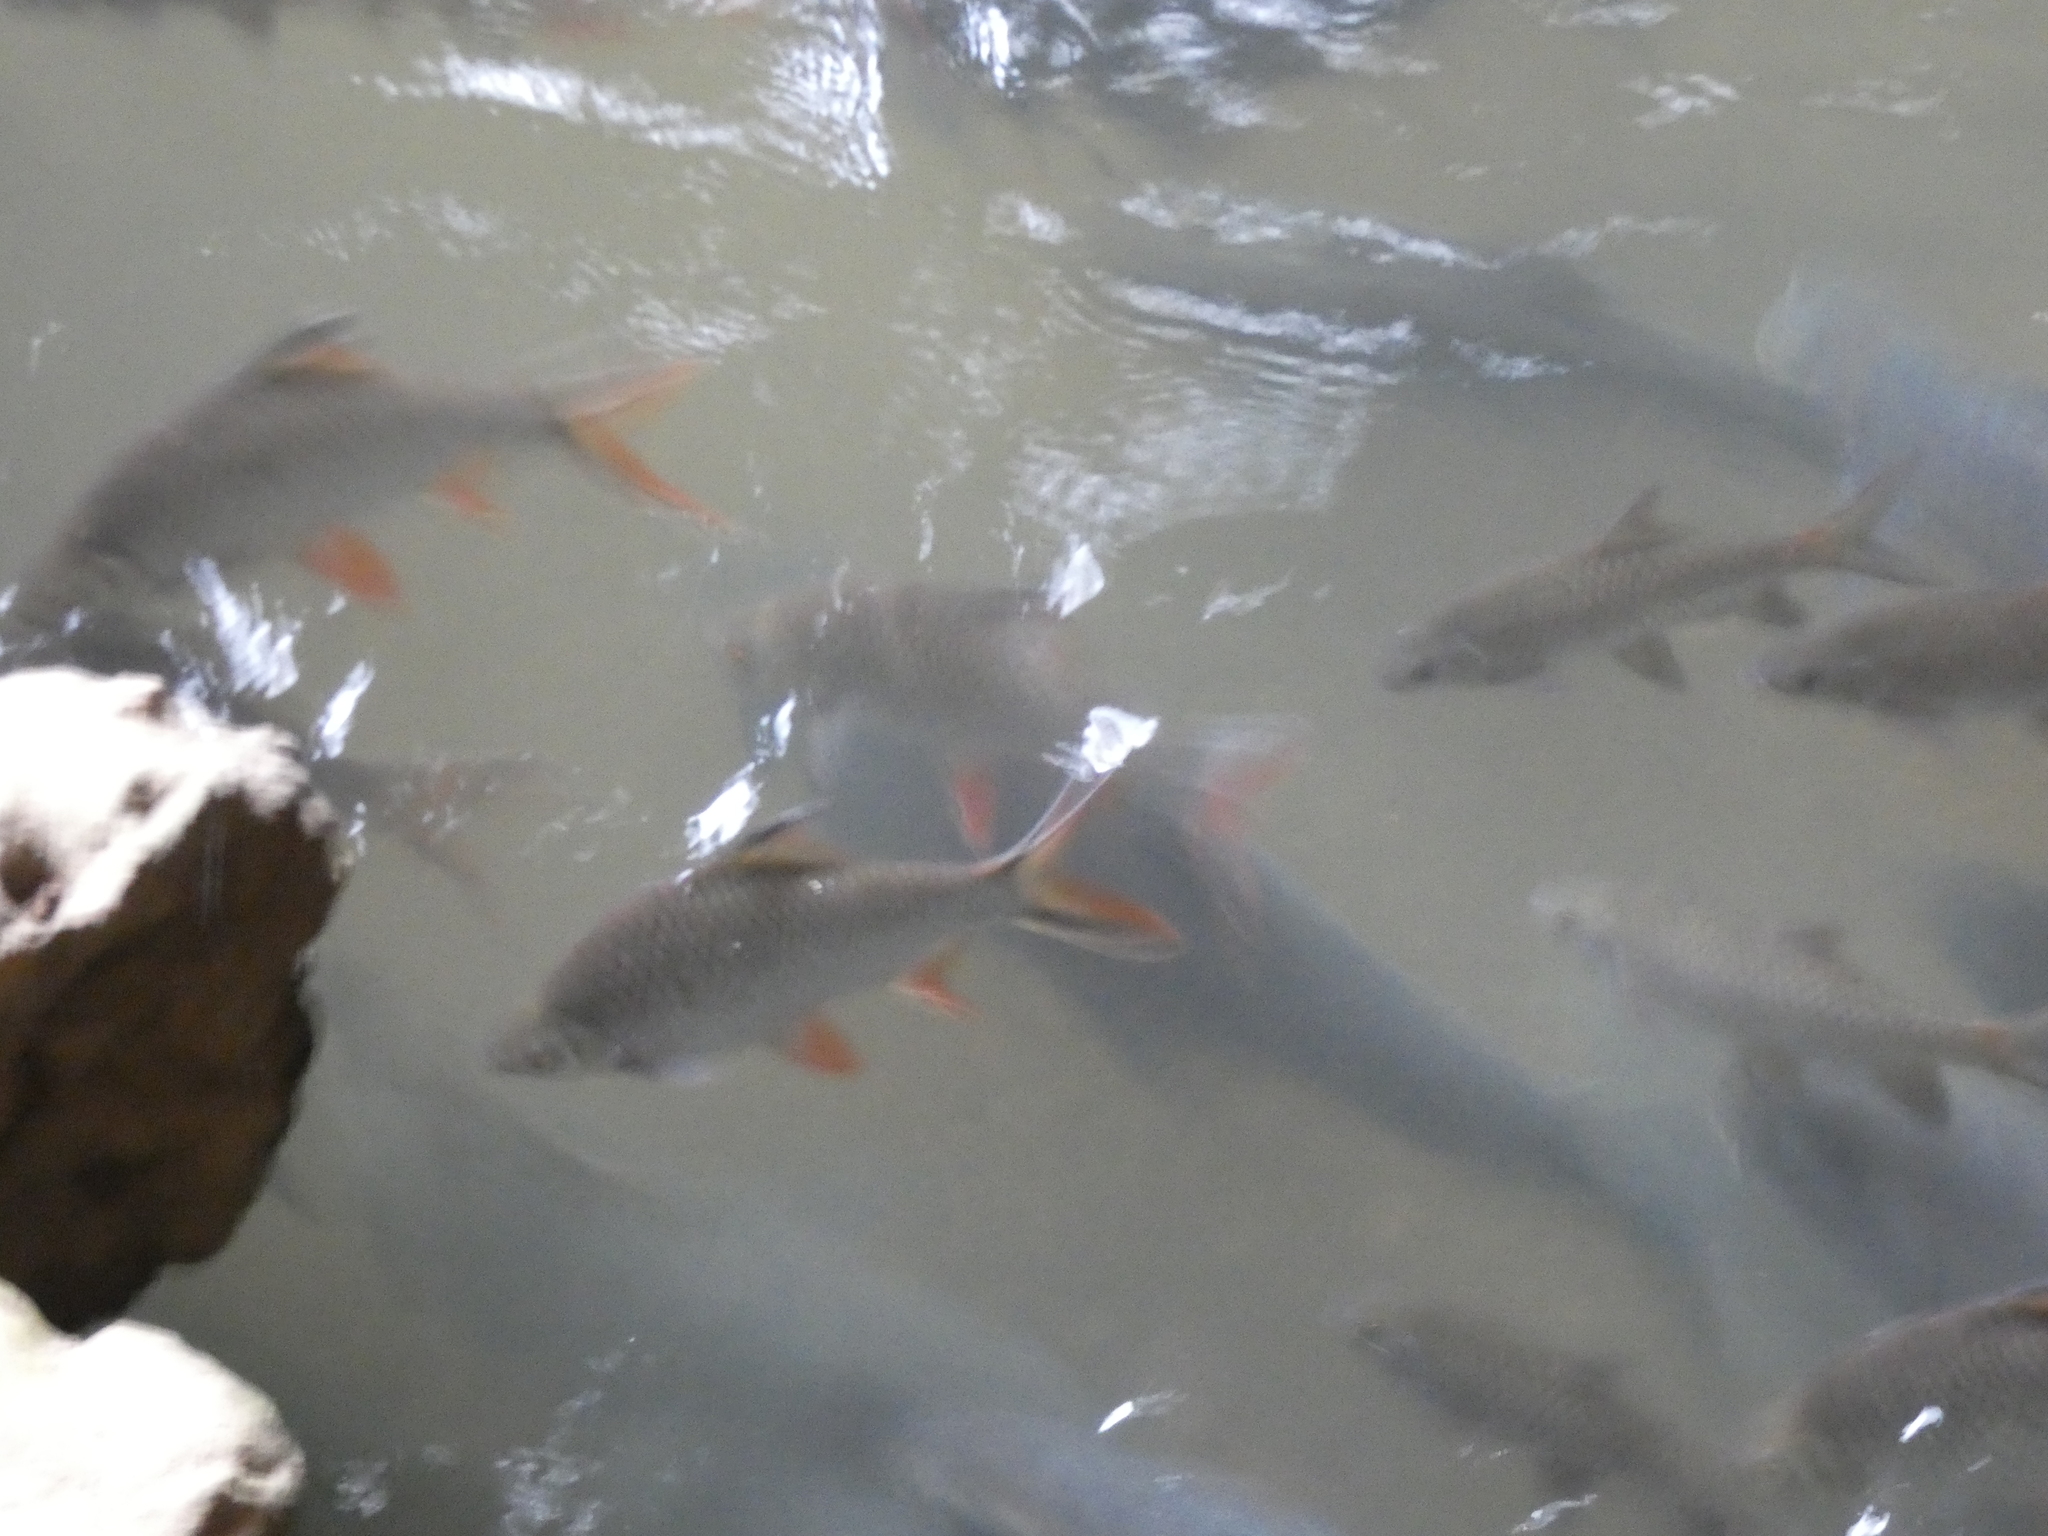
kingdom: Animalia
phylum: Chordata
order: Cypriniformes
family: Cyprinidae
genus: Barbonymus
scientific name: Barbonymus schwanefeldii
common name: Tinfoil barb
